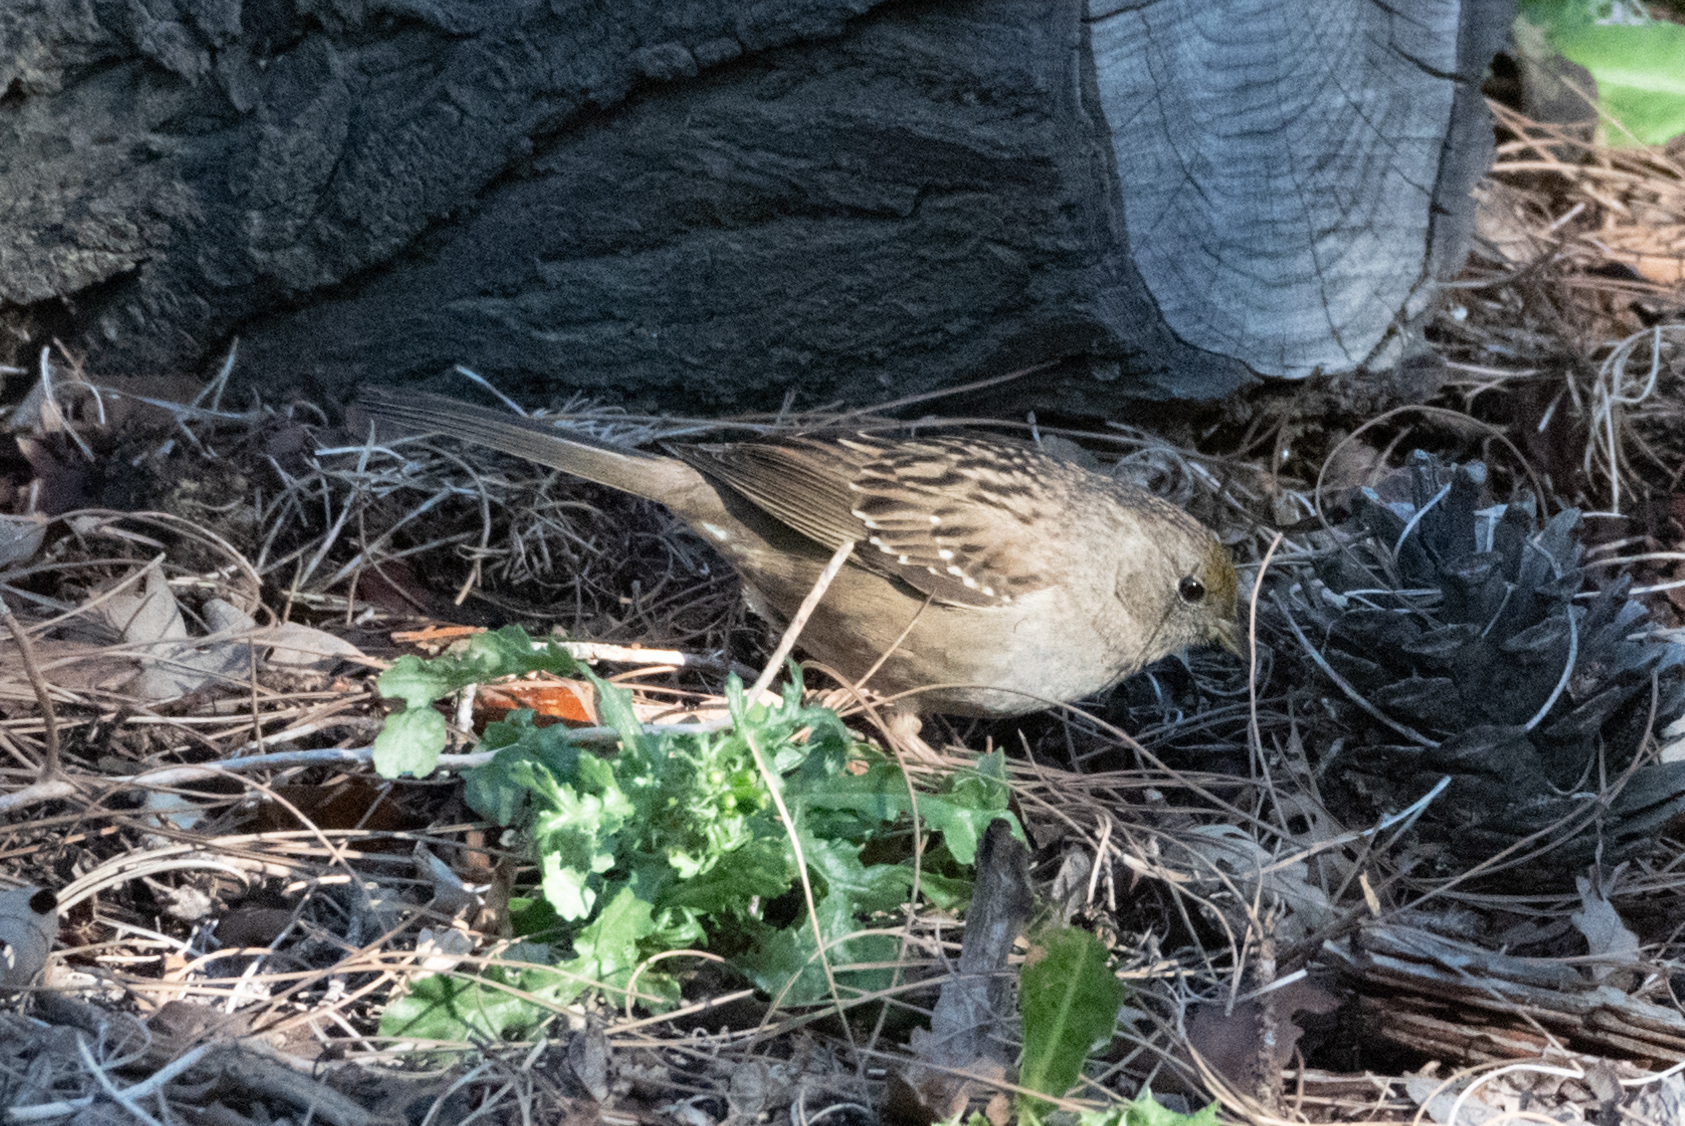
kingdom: Animalia
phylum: Chordata
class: Aves
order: Passeriformes
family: Passerellidae
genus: Zonotrichia
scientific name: Zonotrichia atricapilla
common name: Golden-crowned sparrow
